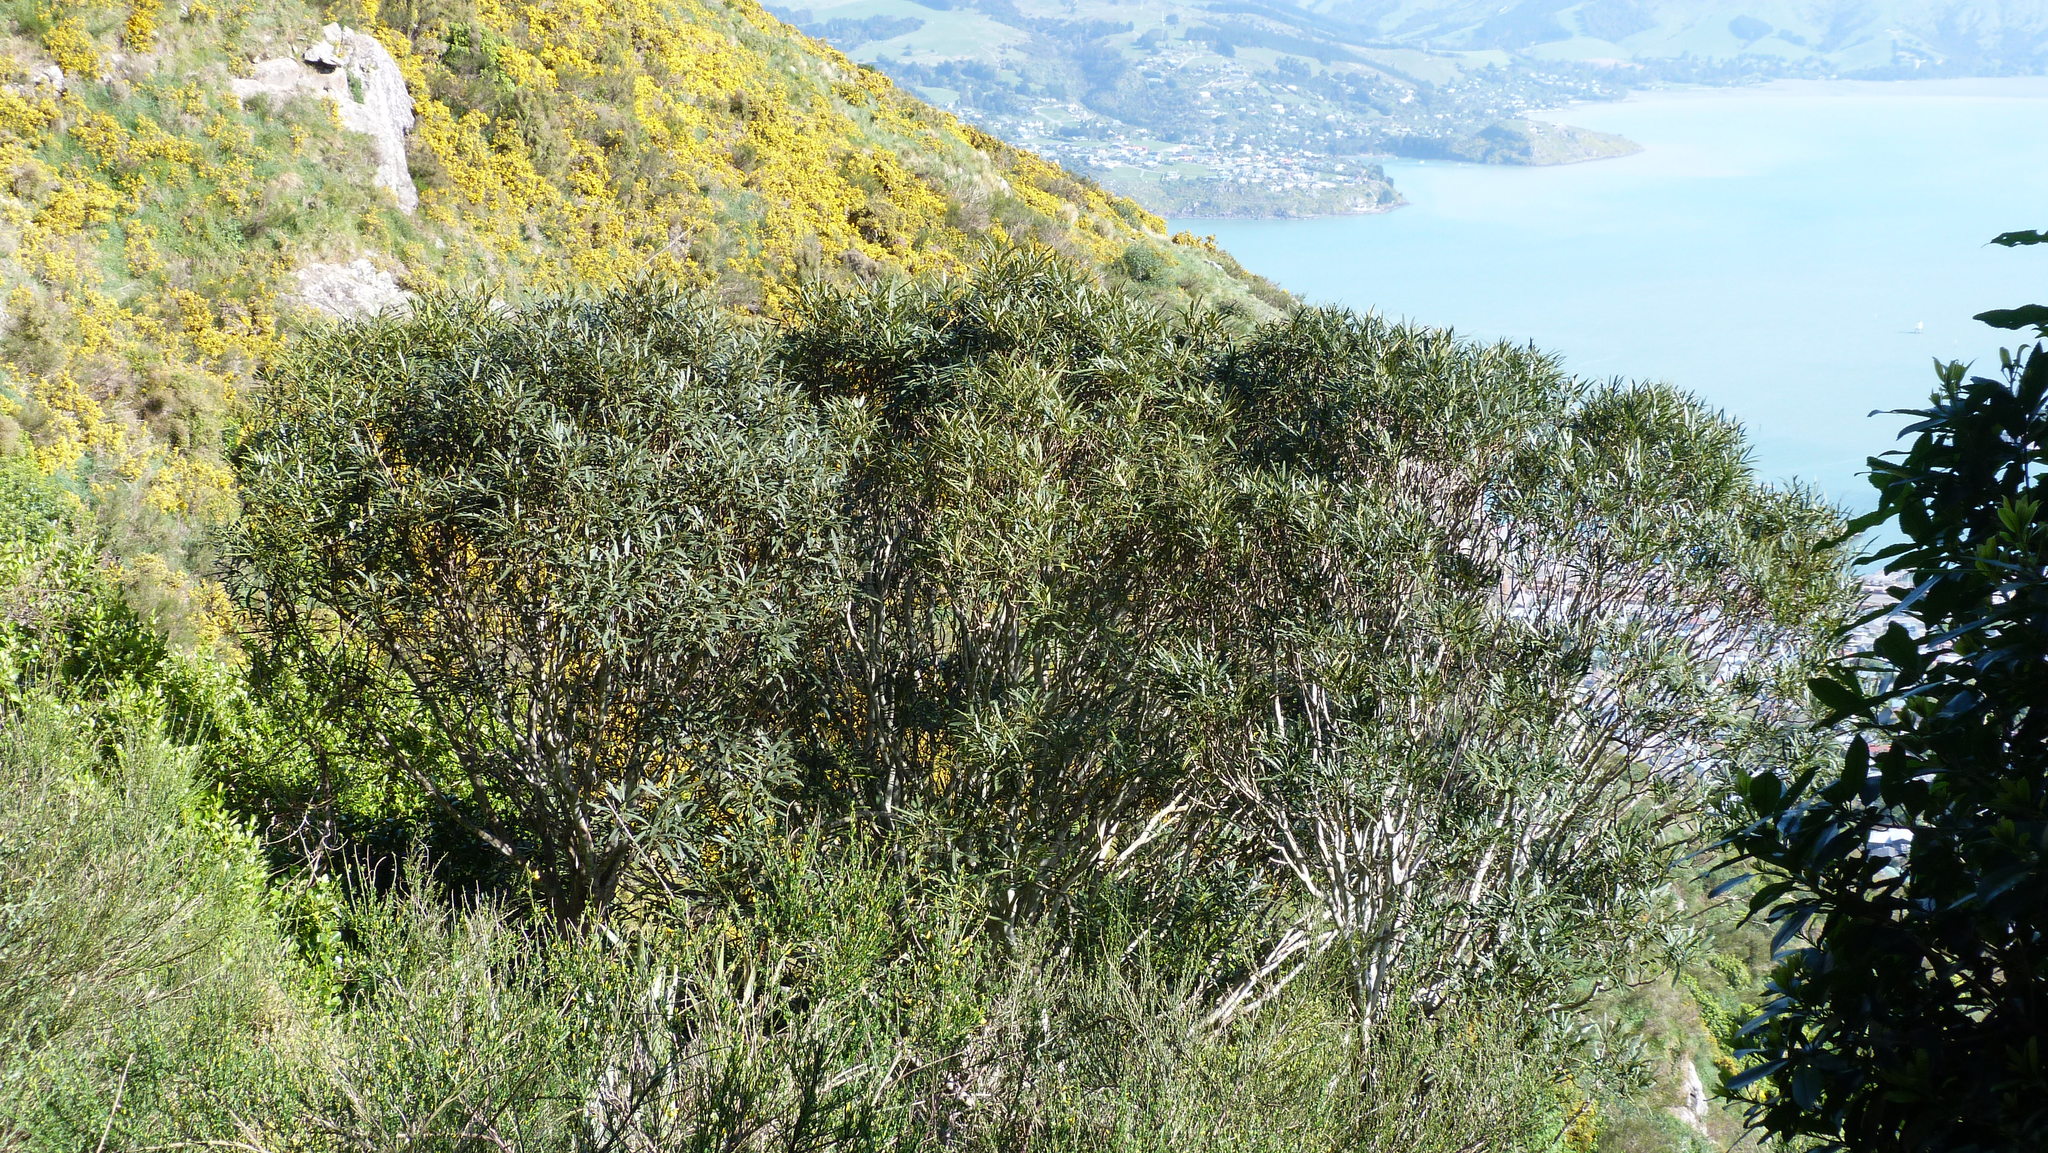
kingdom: Plantae
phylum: Tracheophyta
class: Magnoliopsida
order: Apiales
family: Araliaceae
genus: Pseudopanax
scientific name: Pseudopanax crassifolius
